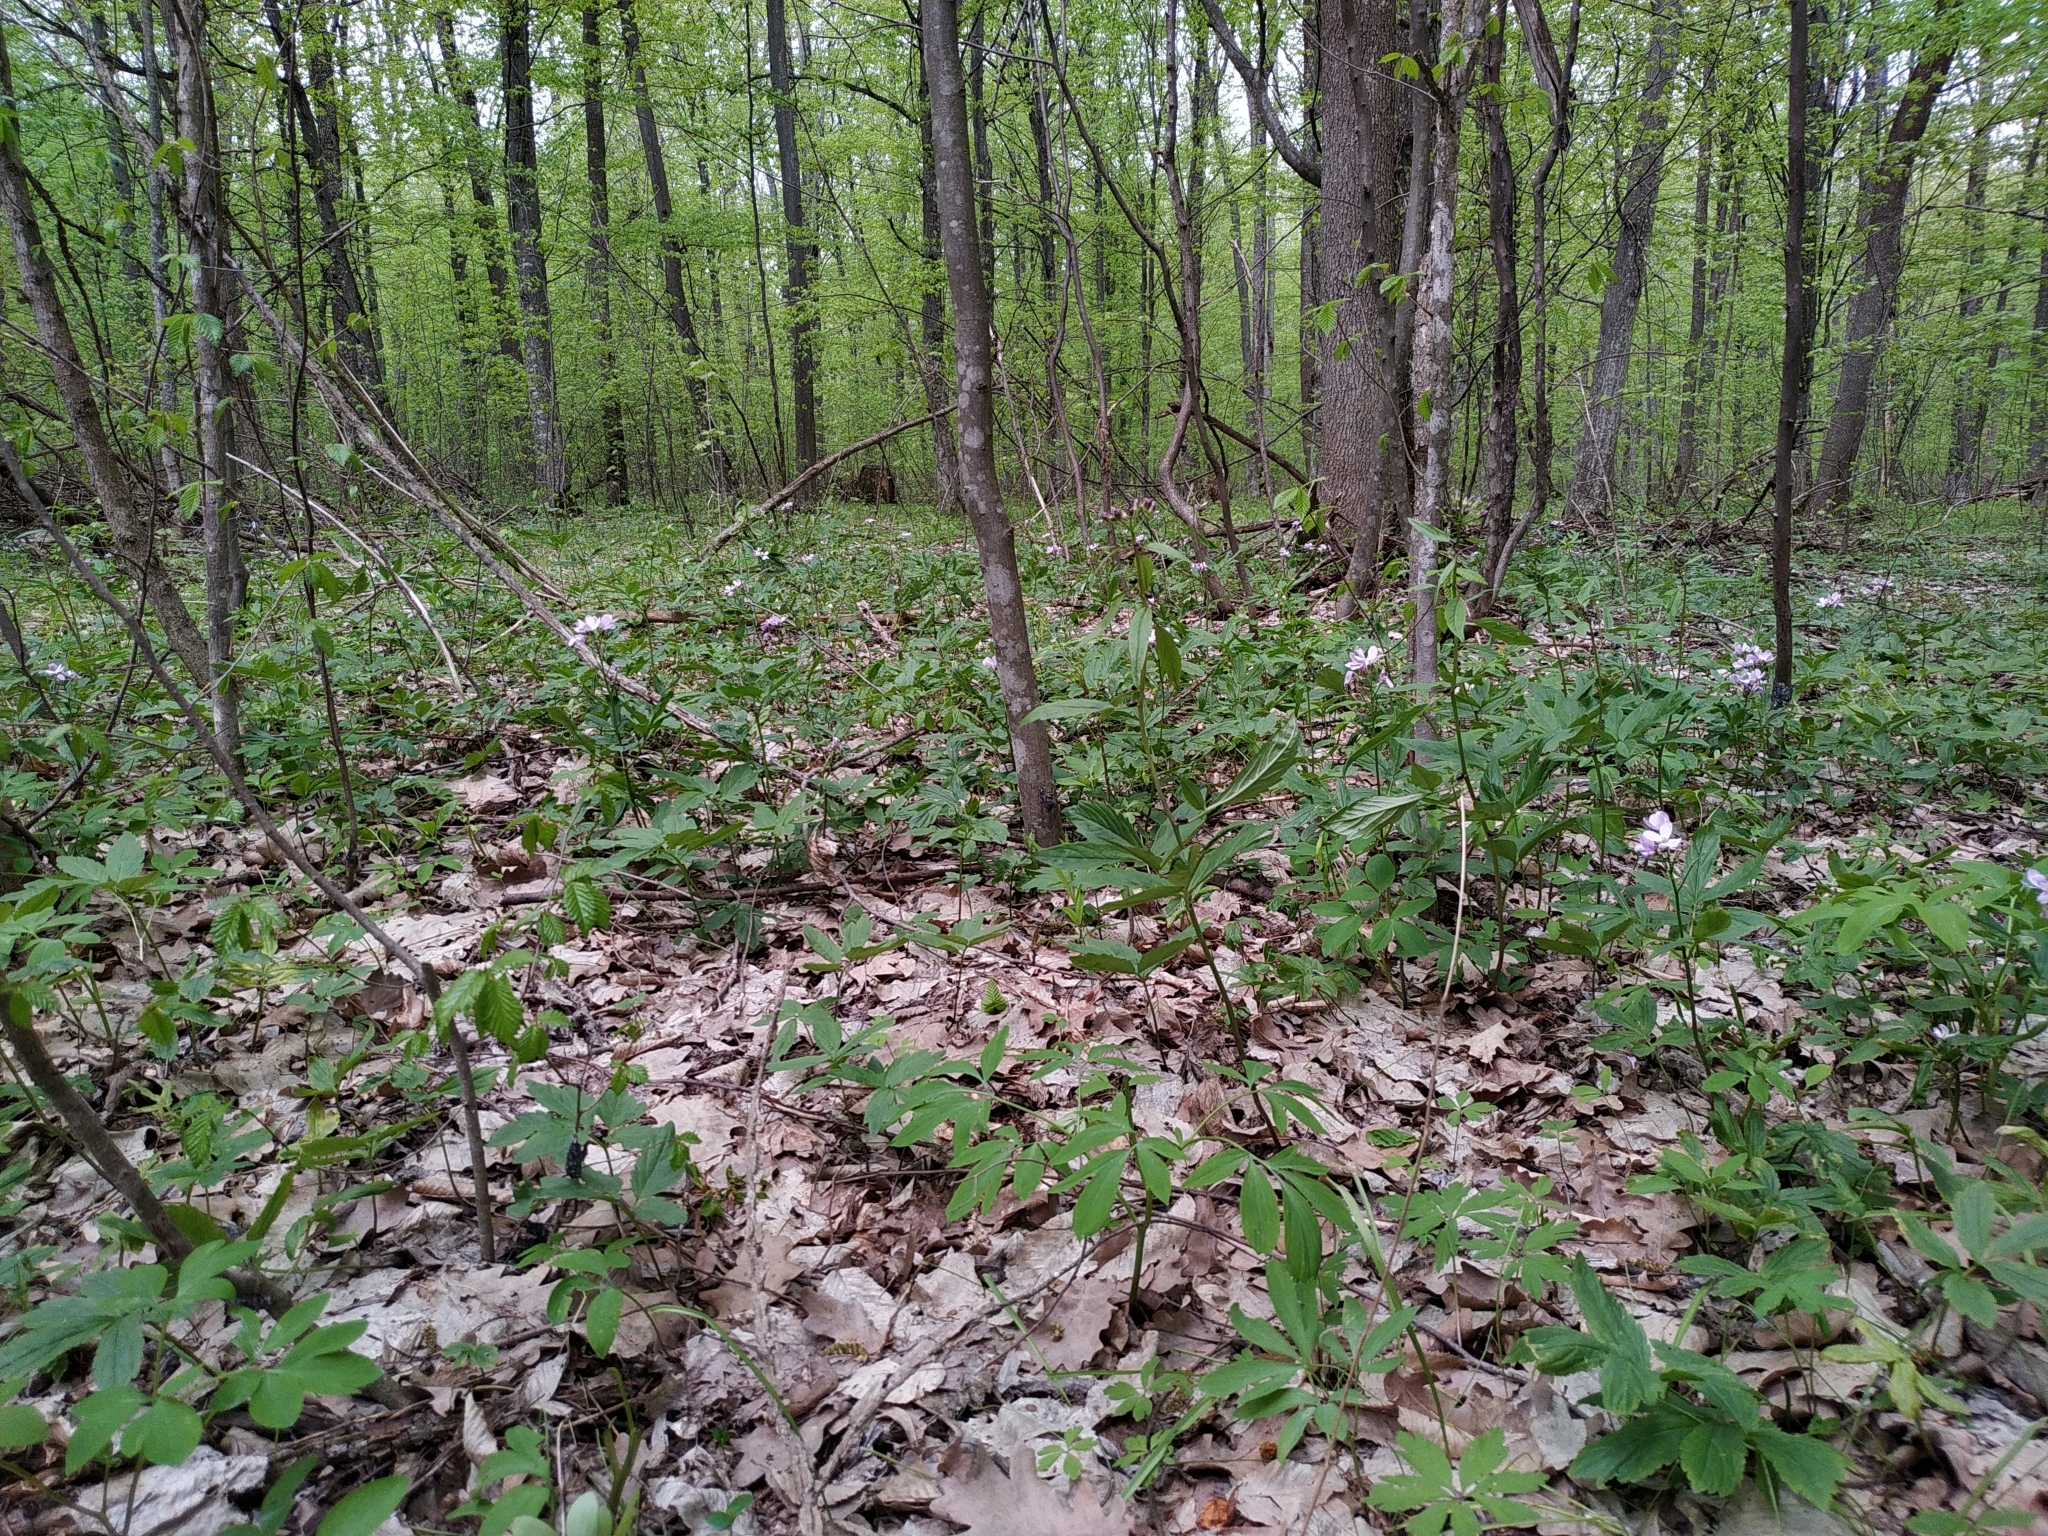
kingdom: Plantae
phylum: Tracheophyta
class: Magnoliopsida
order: Brassicales
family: Brassicaceae
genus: Cardamine
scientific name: Cardamine bulbifera
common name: Coralroot bittercress
